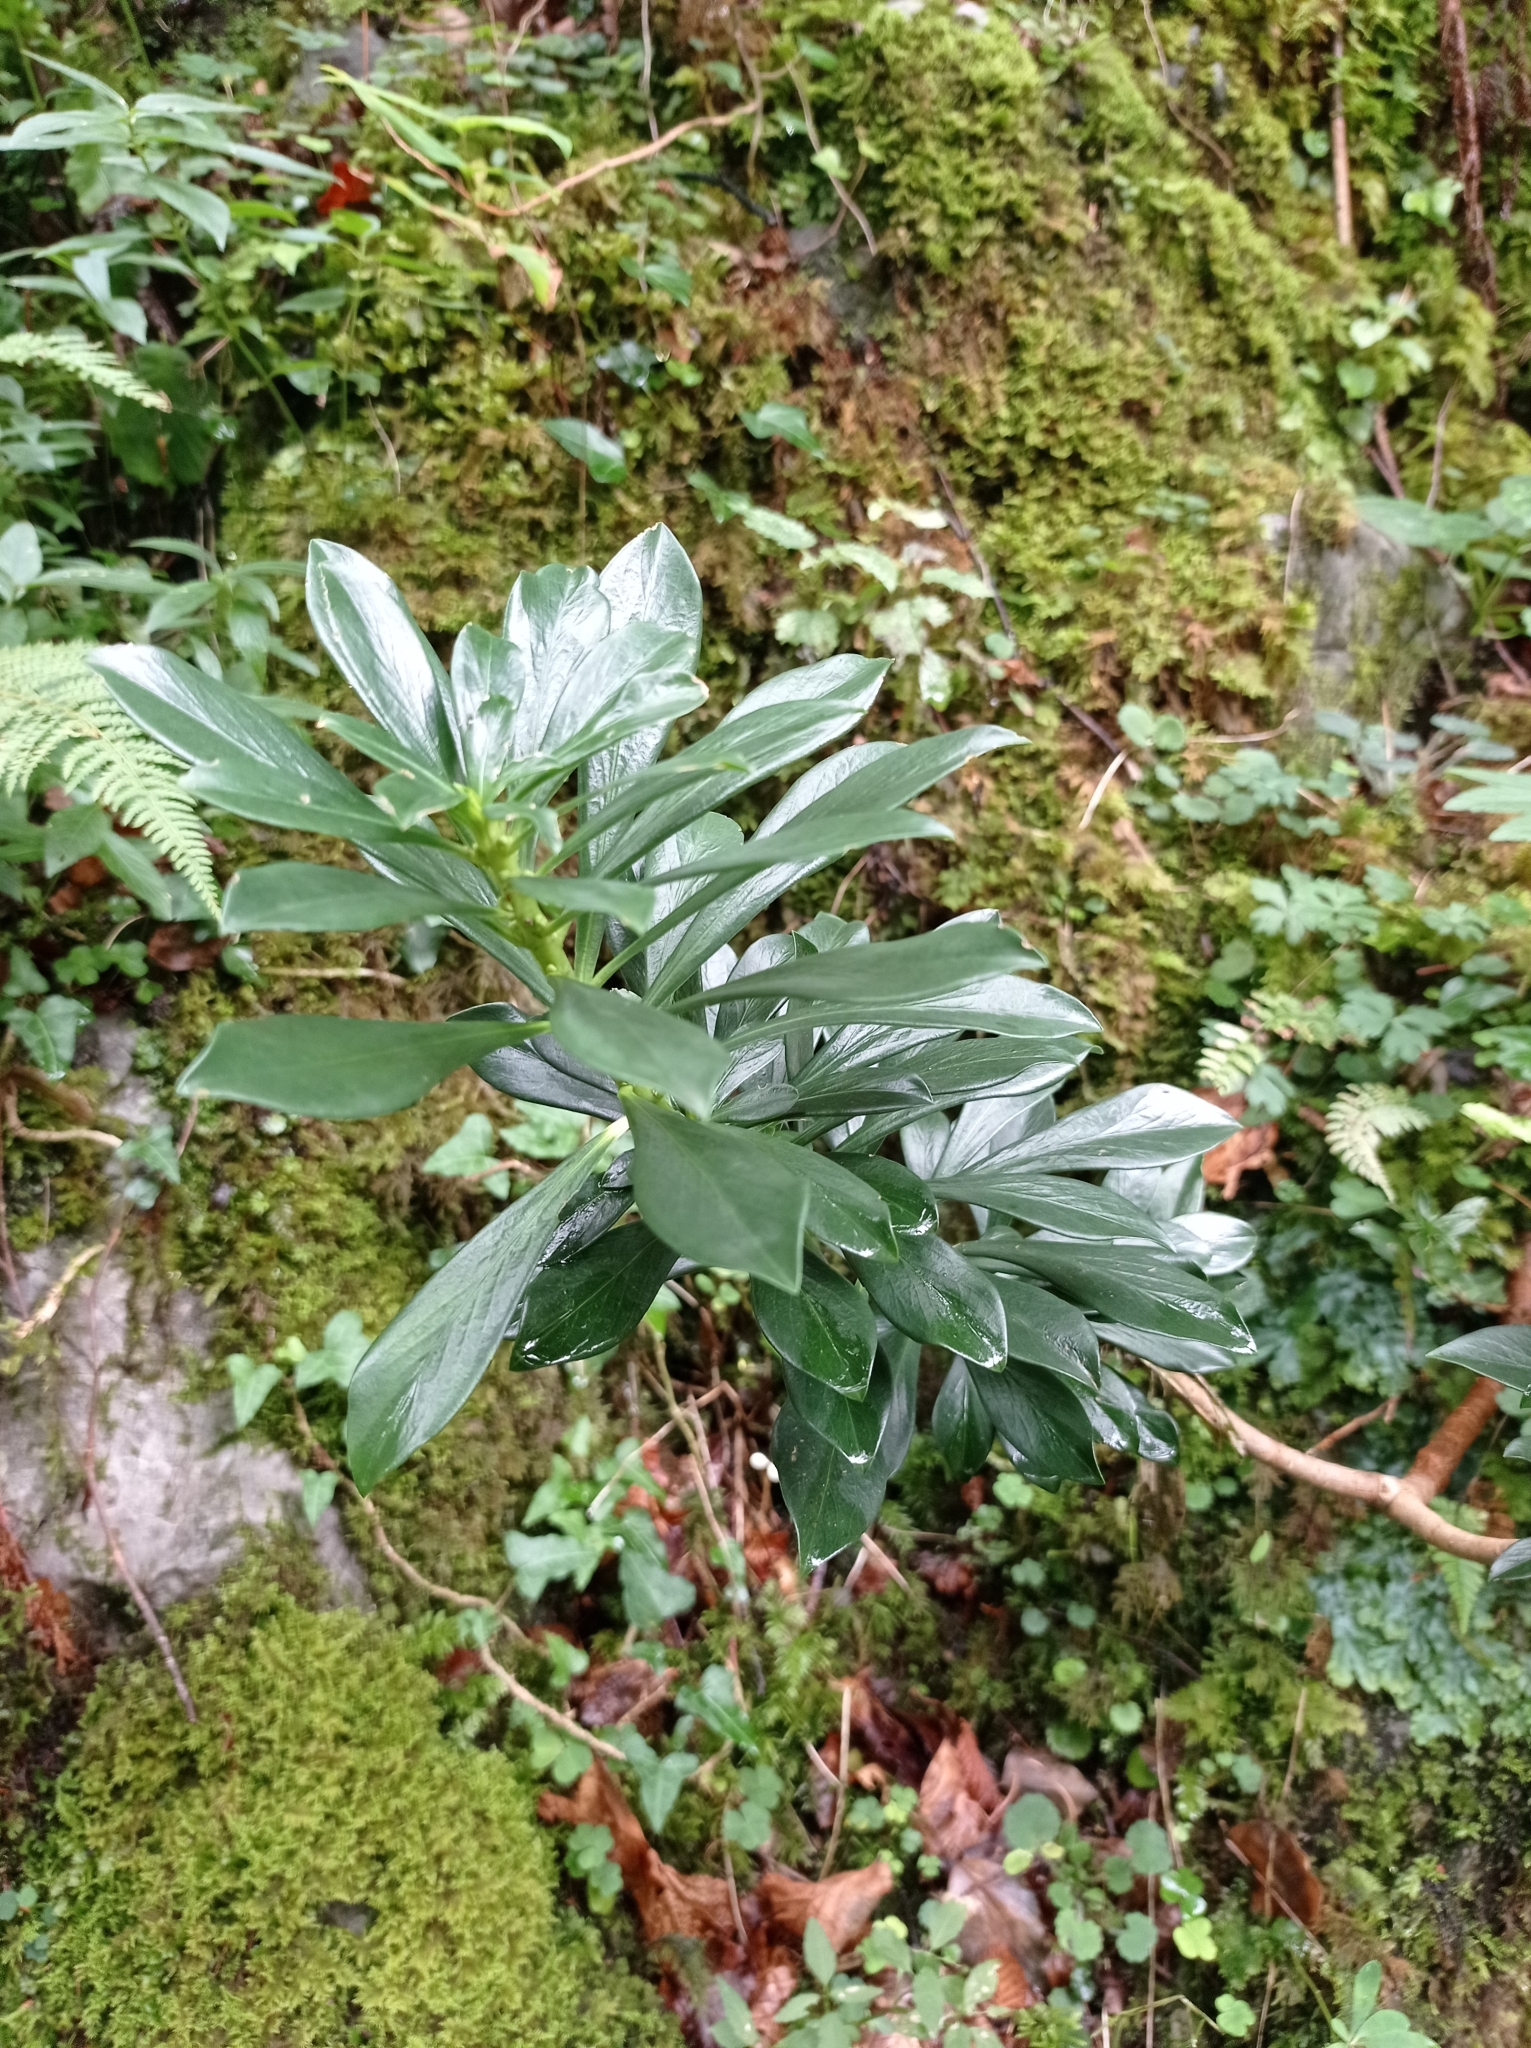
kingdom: Plantae
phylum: Tracheophyta
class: Magnoliopsida
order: Malvales
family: Thymelaeaceae
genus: Daphne
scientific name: Daphne laureola
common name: Spurge-laurel
